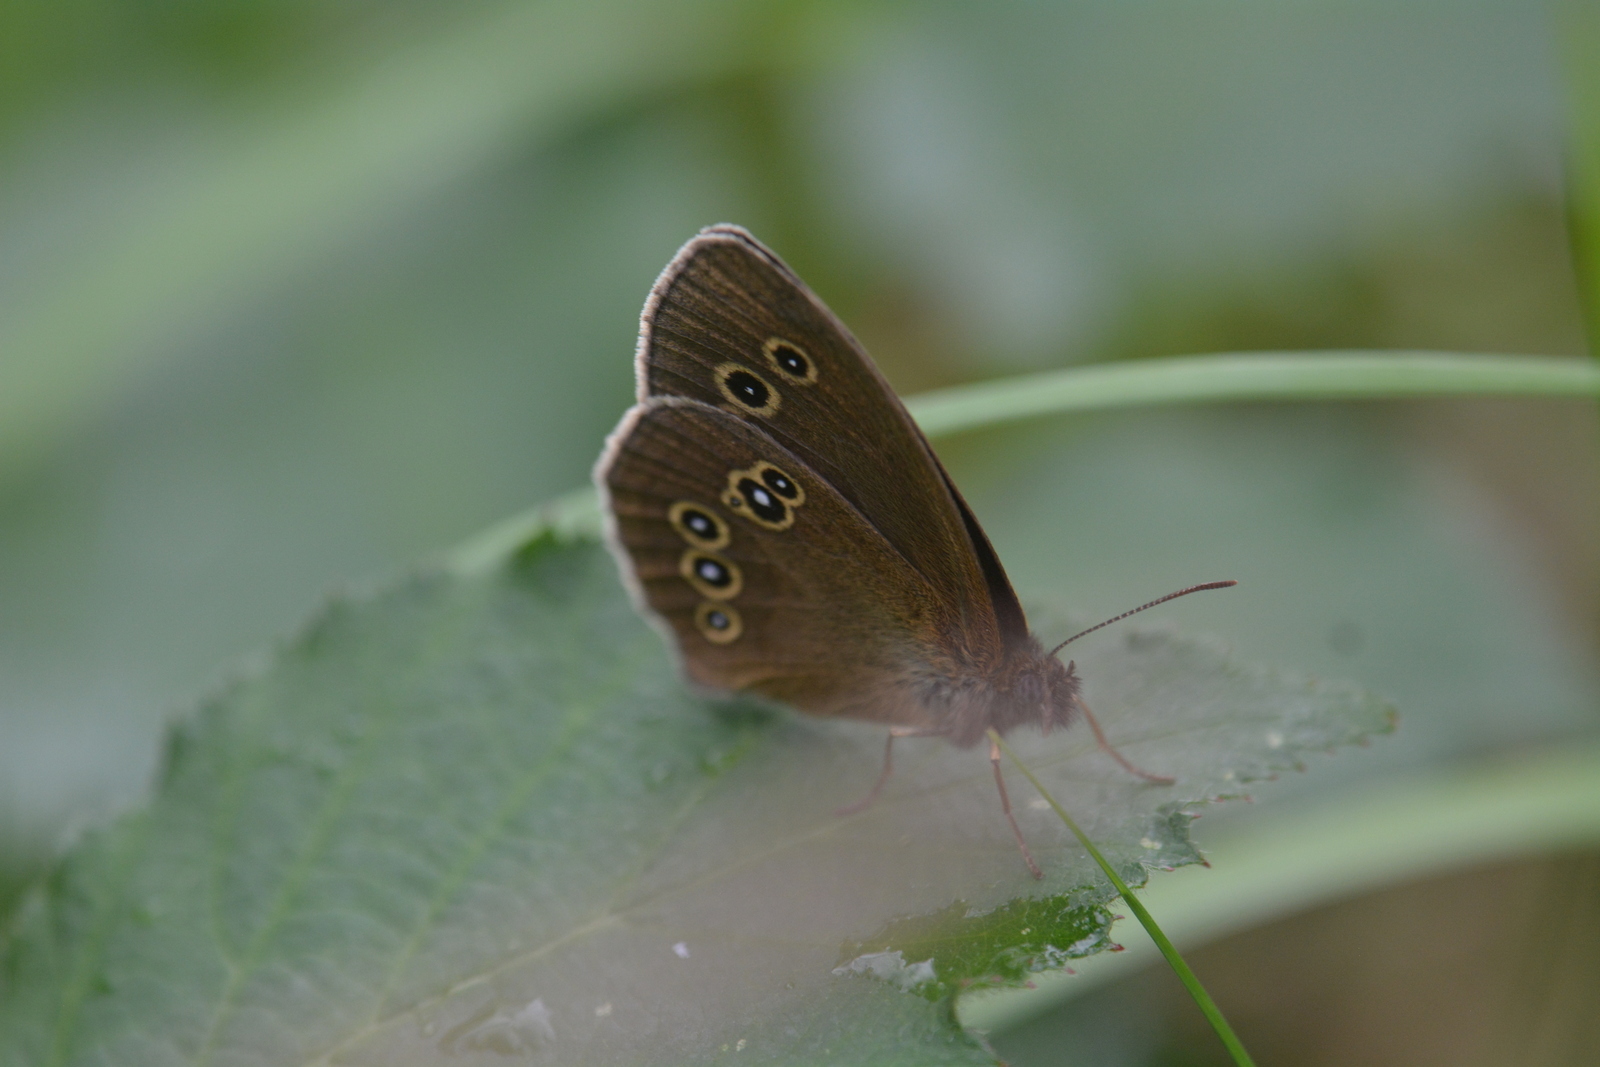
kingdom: Animalia
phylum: Arthropoda
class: Insecta
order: Lepidoptera
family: Nymphalidae
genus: Aphantopus
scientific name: Aphantopus hyperantus
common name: Ringlet
